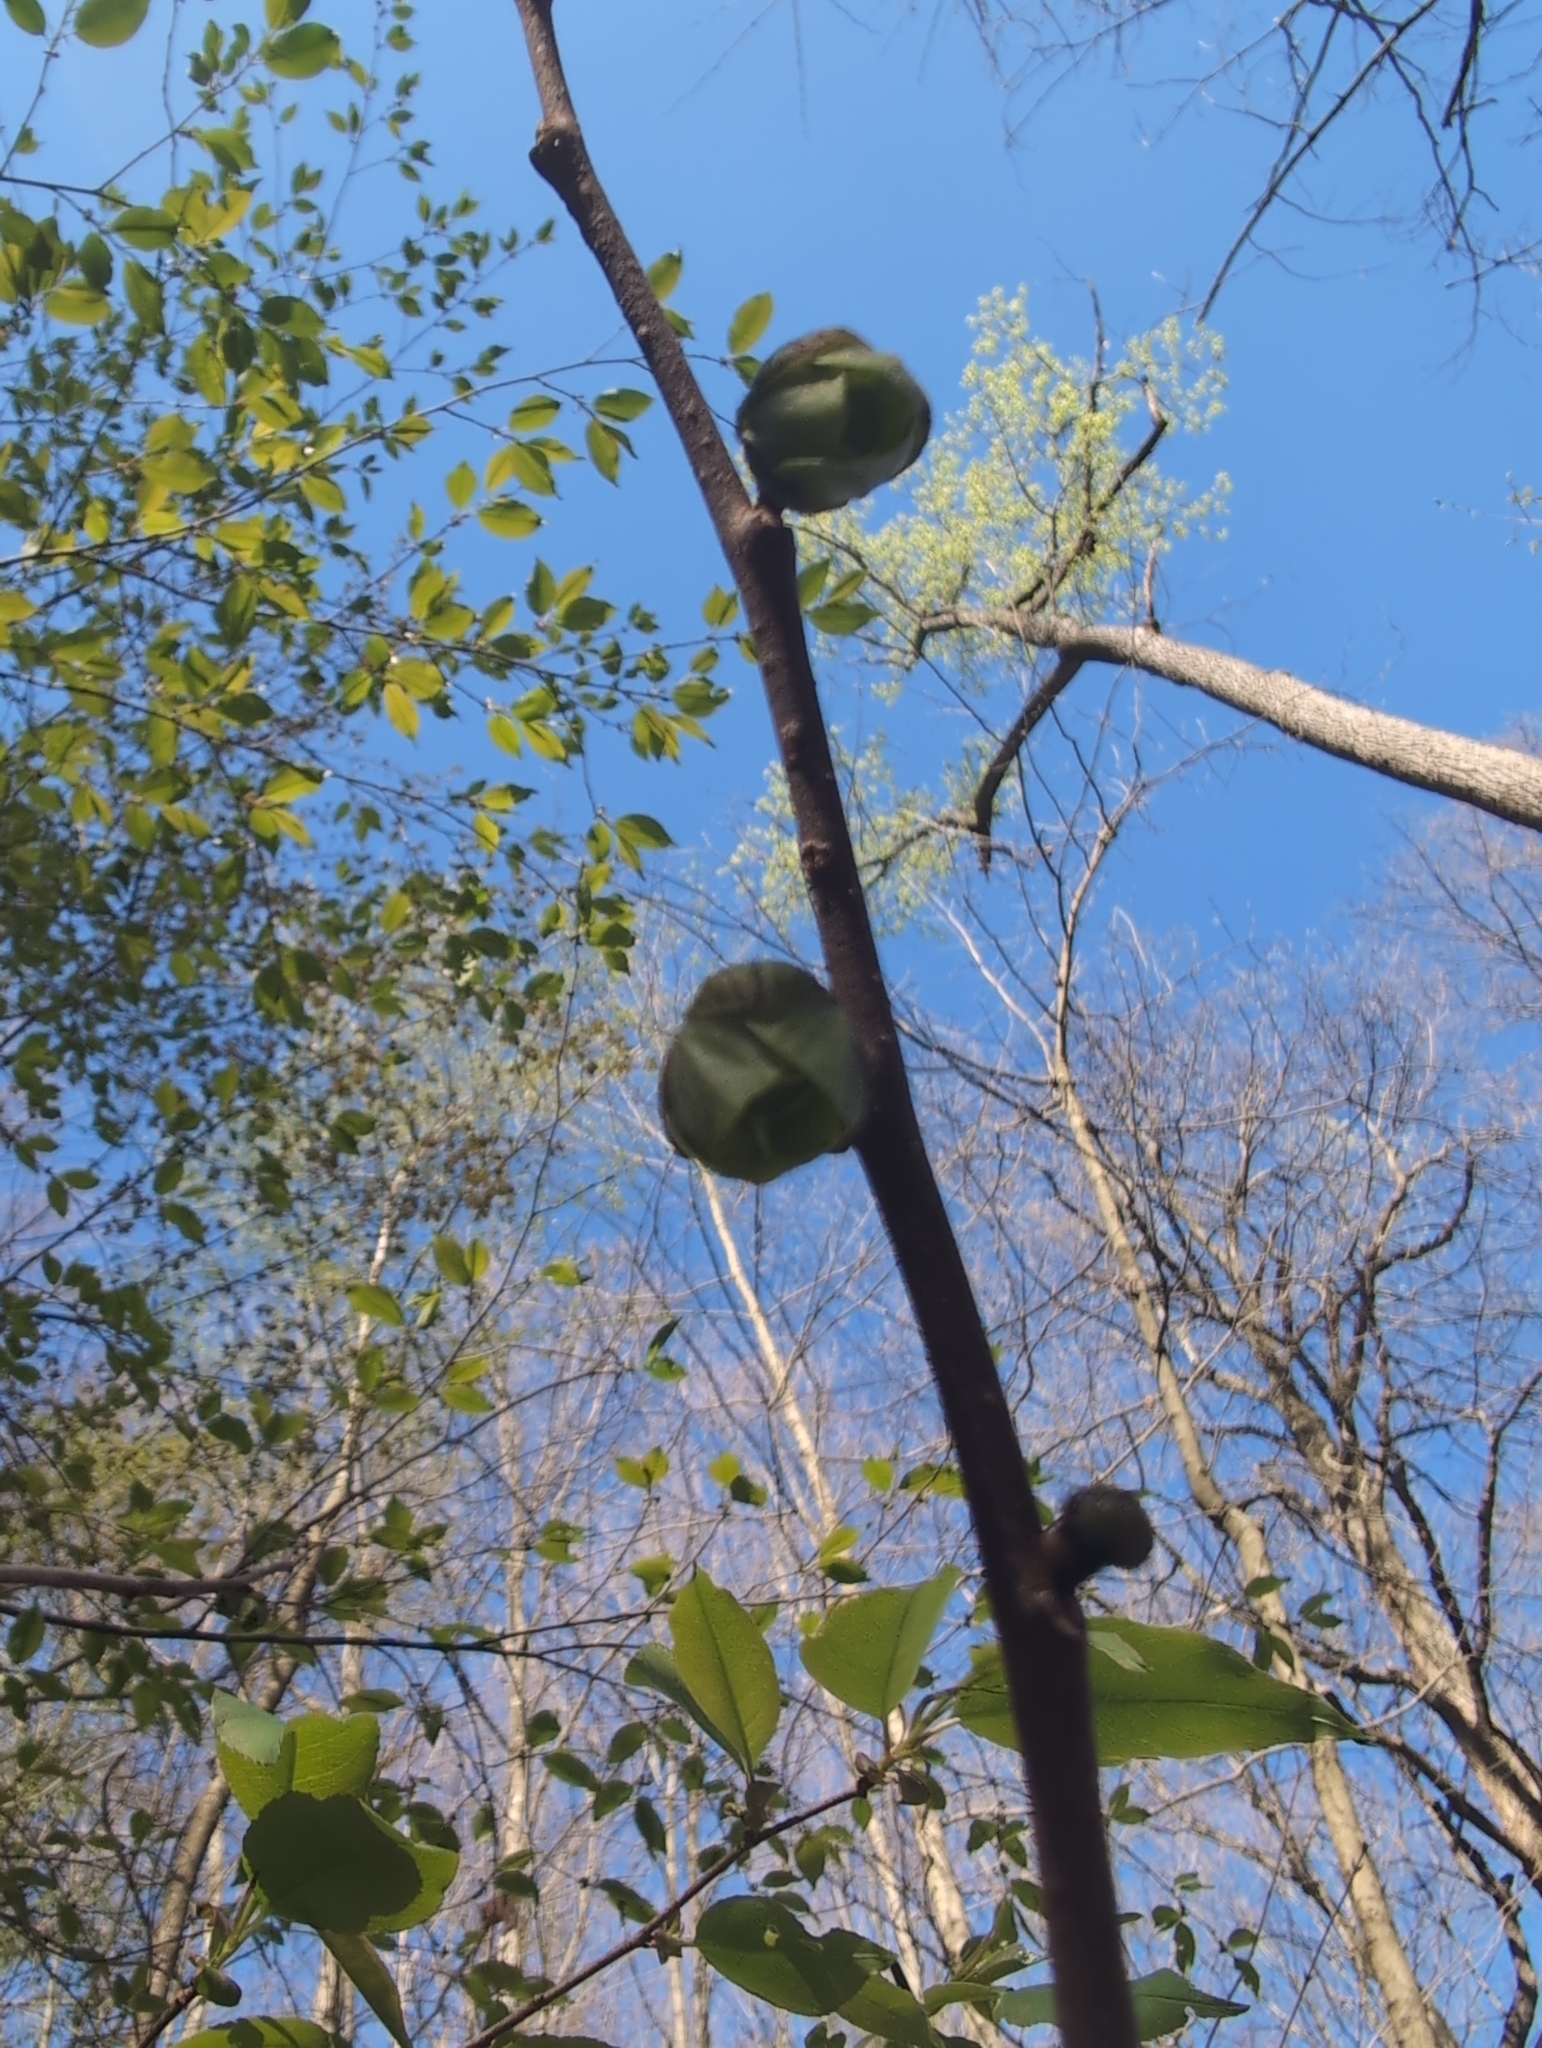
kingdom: Plantae
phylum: Tracheophyta
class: Magnoliopsida
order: Magnoliales
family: Annonaceae
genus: Asimina
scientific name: Asimina triloba
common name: Dog-banana
